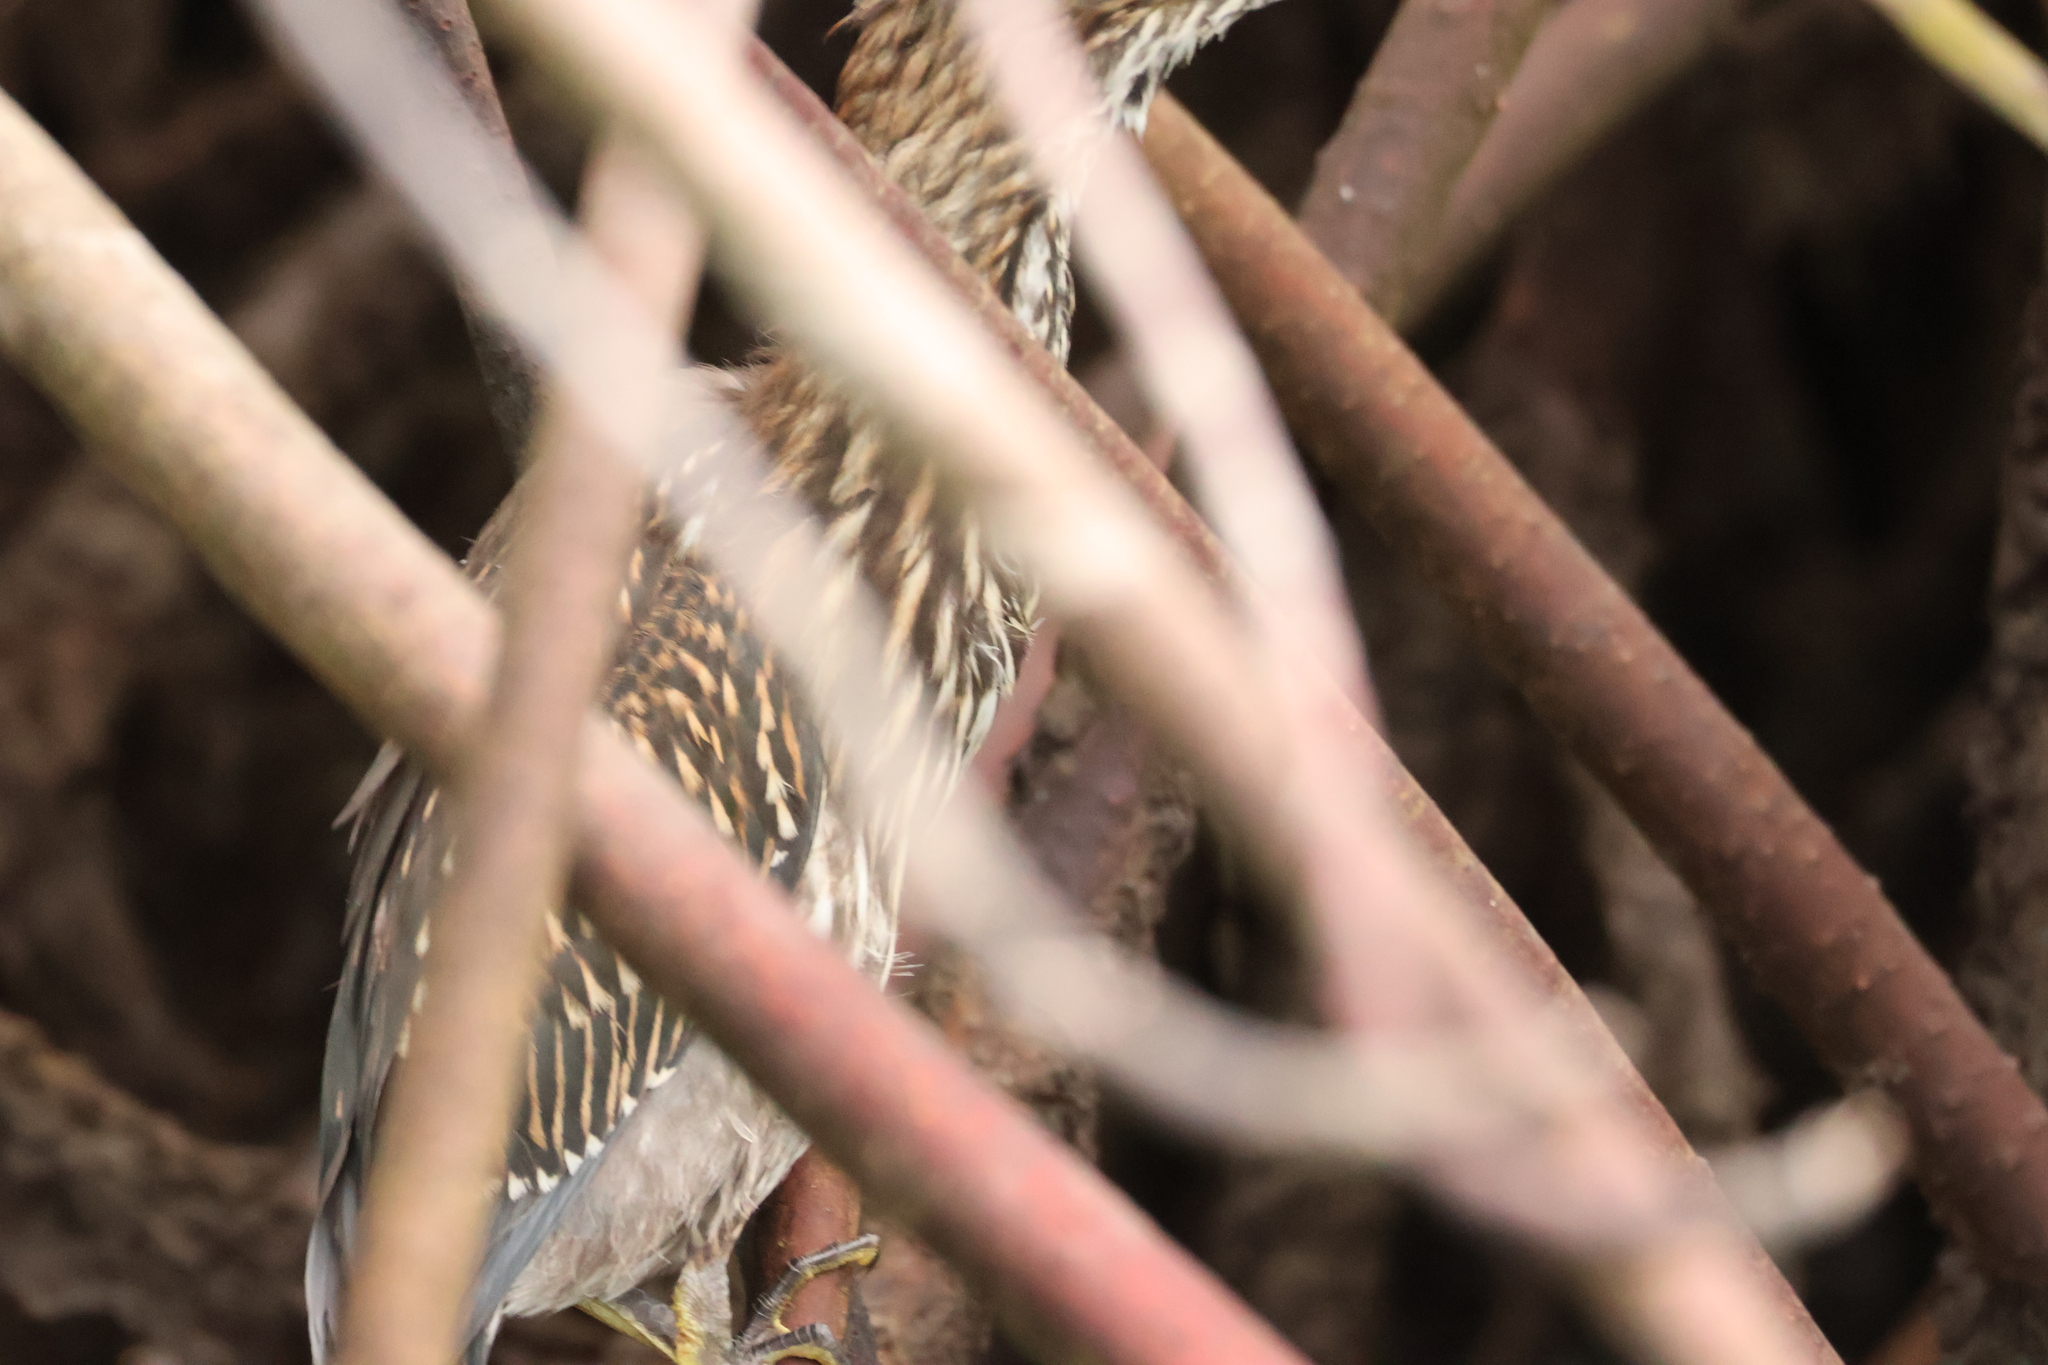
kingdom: Animalia
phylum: Chordata
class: Aves
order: Pelecaniformes
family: Ardeidae
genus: Butorides
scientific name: Butorides striata
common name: Striated heron
